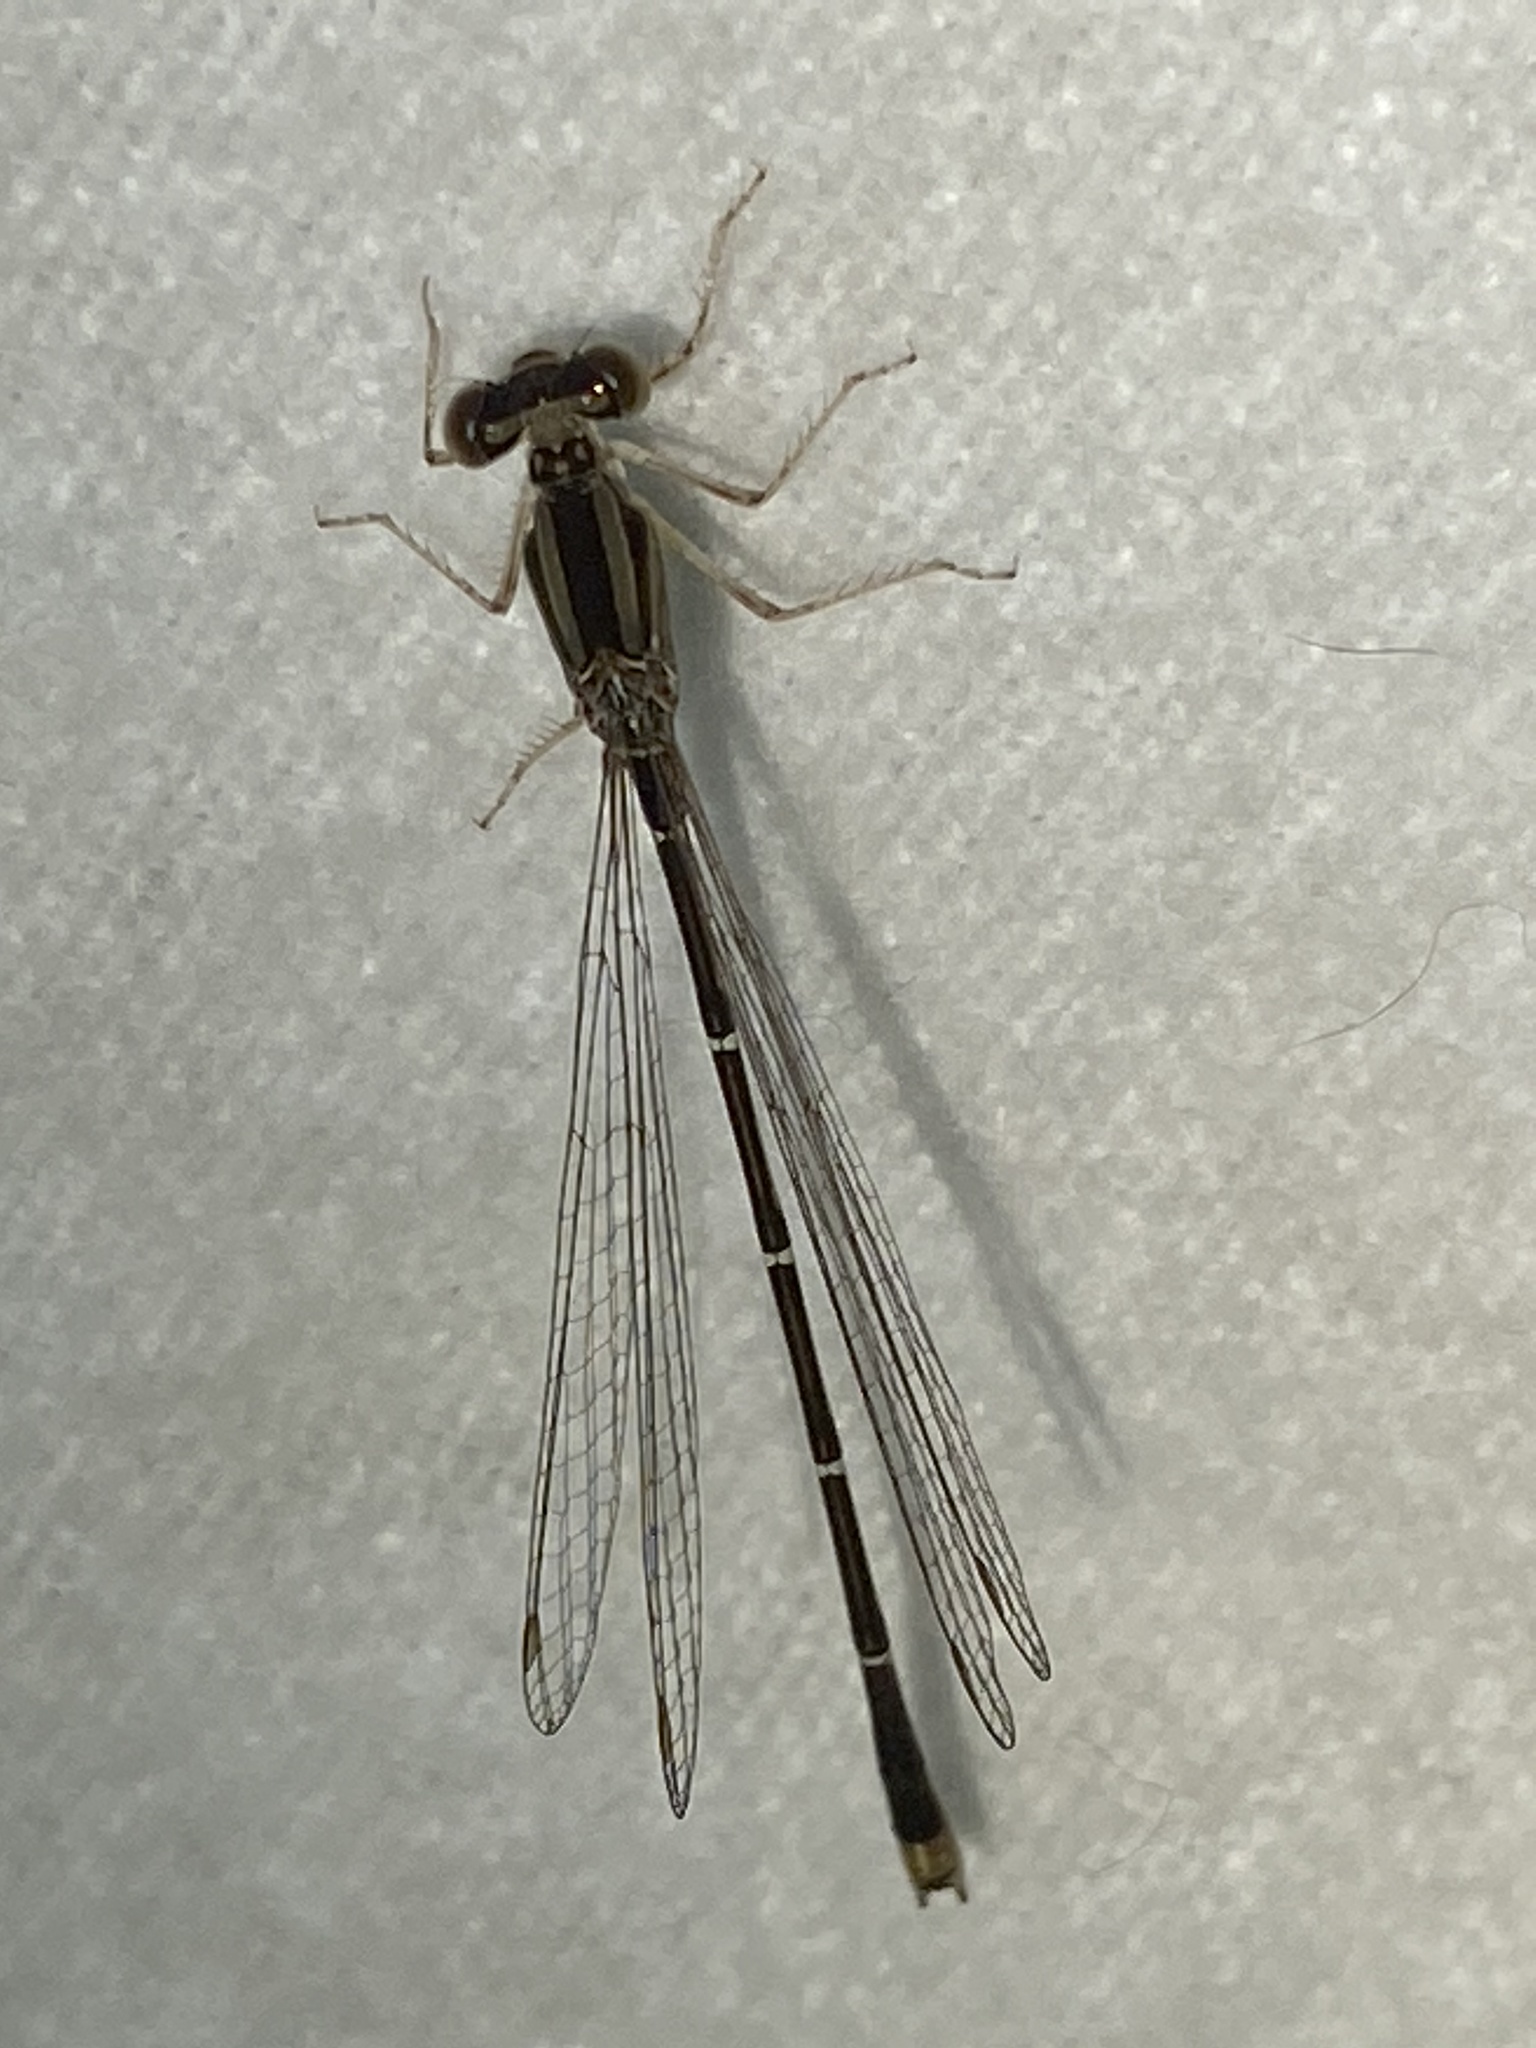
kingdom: Animalia
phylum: Arthropoda
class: Insecta
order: Odonata
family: Coenagrionidae
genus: Enallagma
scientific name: Enallagma signatum
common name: Orange bluet
